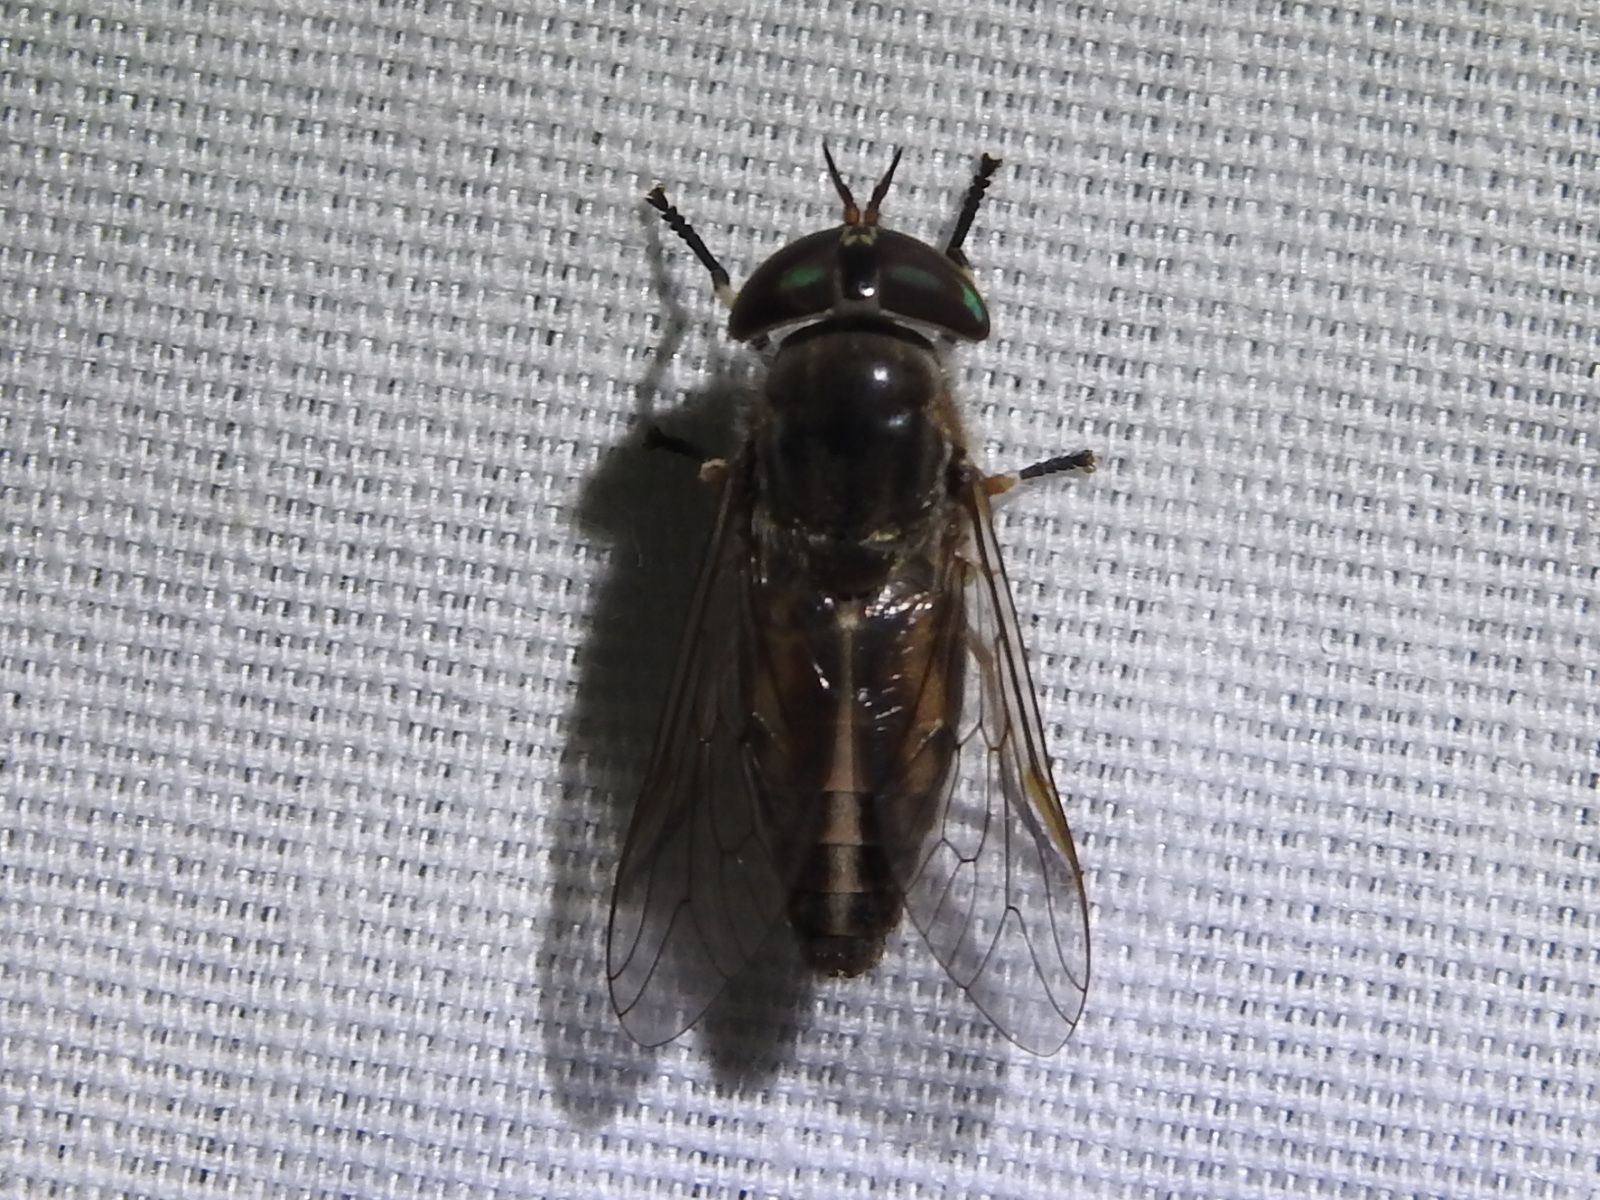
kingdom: Animalia
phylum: Arthropoda
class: Insecta
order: Diptera
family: Tabanidae
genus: Tabanus
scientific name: Tabanus lineola
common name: Striped horse fly
